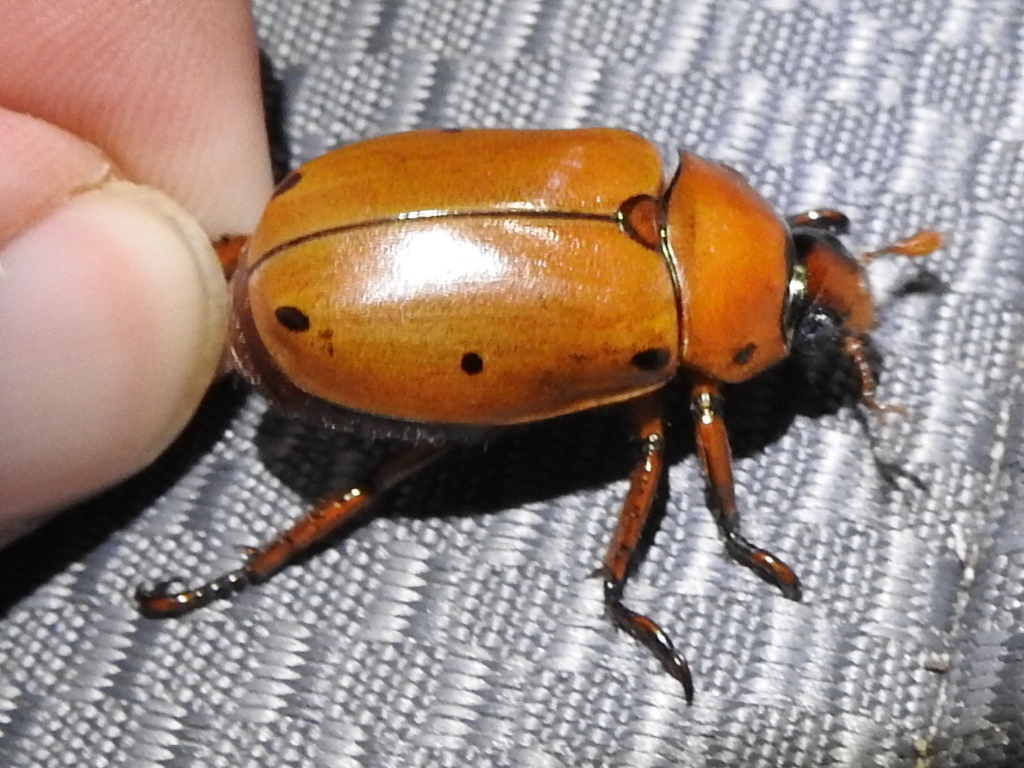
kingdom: Animalia
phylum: Arthropoda
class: Insecta
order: Coleoptera
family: Scarabaeidae
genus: Pelidnota
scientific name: Pelidnota punctata
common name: Grapevine beetle
